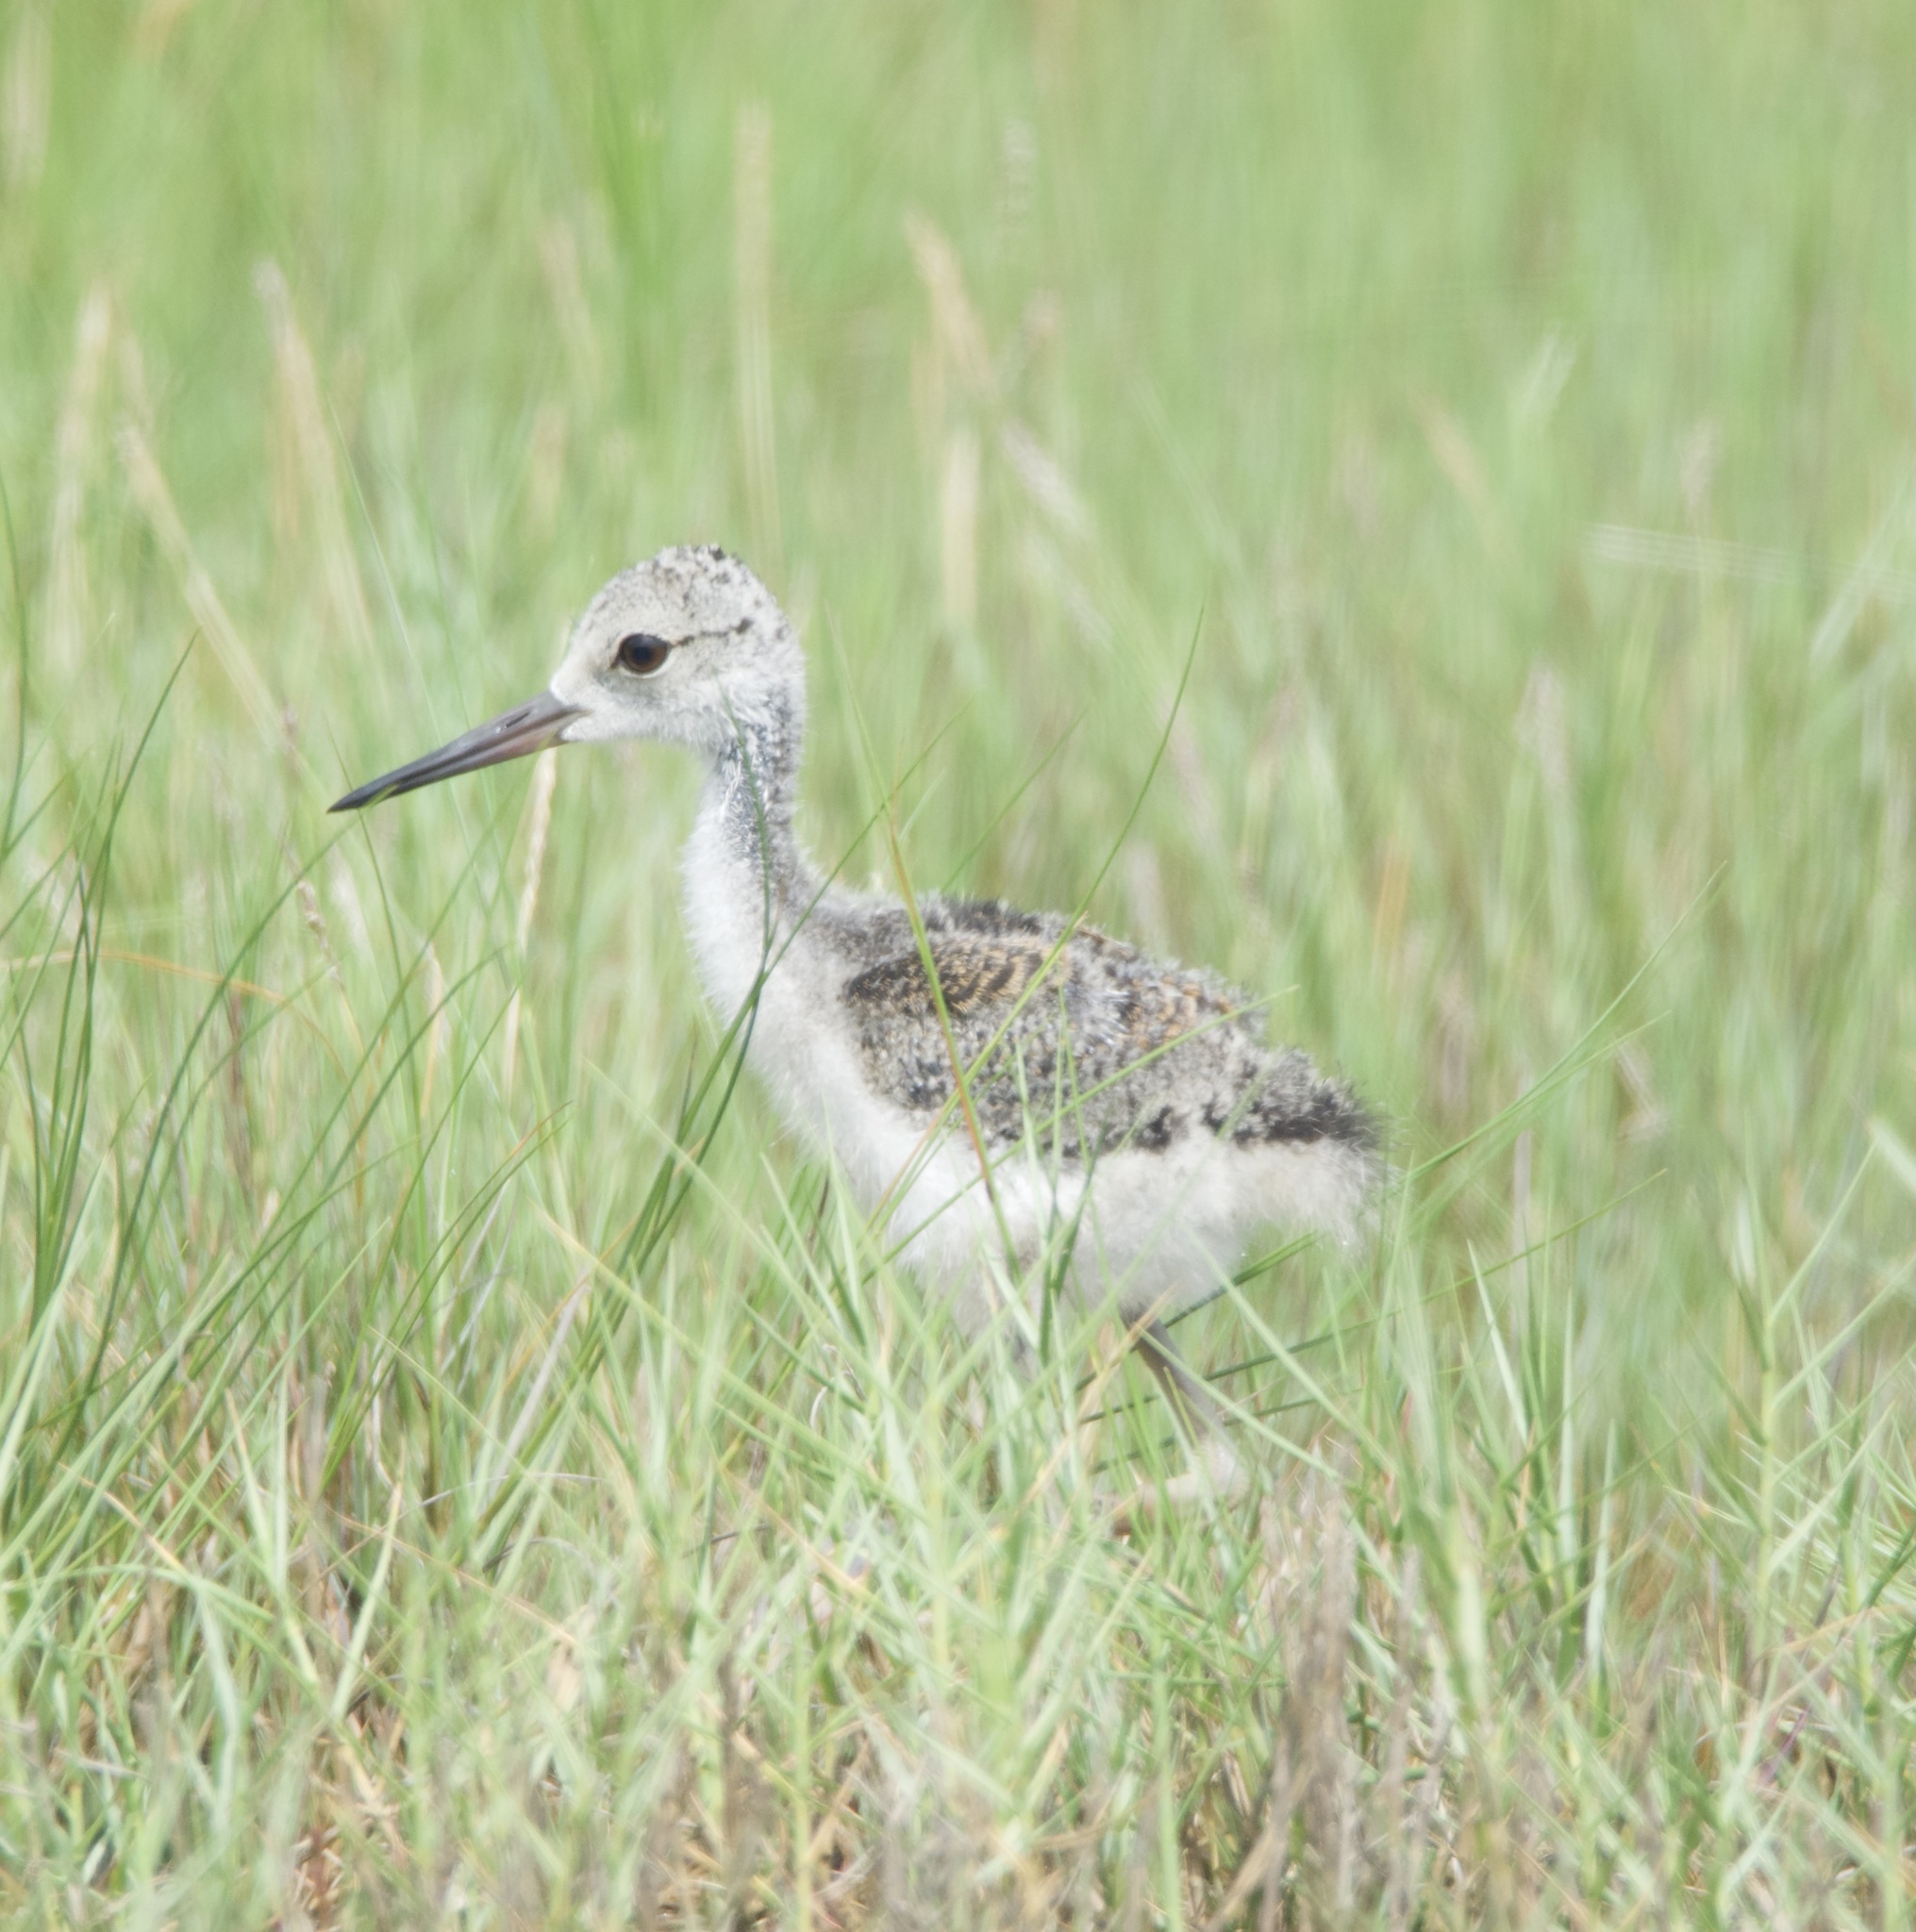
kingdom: Animalia
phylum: Chordata
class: Aves
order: Charadriiformes
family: Recurvirostridae
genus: Himantopus
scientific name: Himantopus mexicanus
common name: Black-necked stilt
